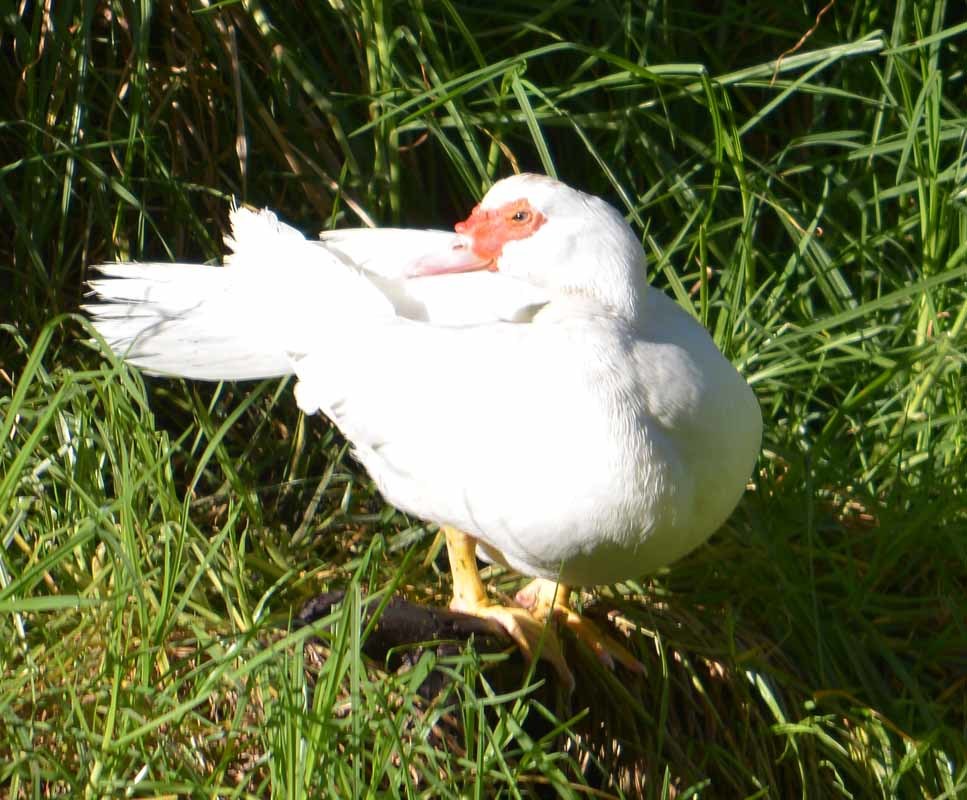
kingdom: Animalia
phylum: Chordata
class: Aves
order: Anseriformes
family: Anatidae
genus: Cairina
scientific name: Cairina moschata
